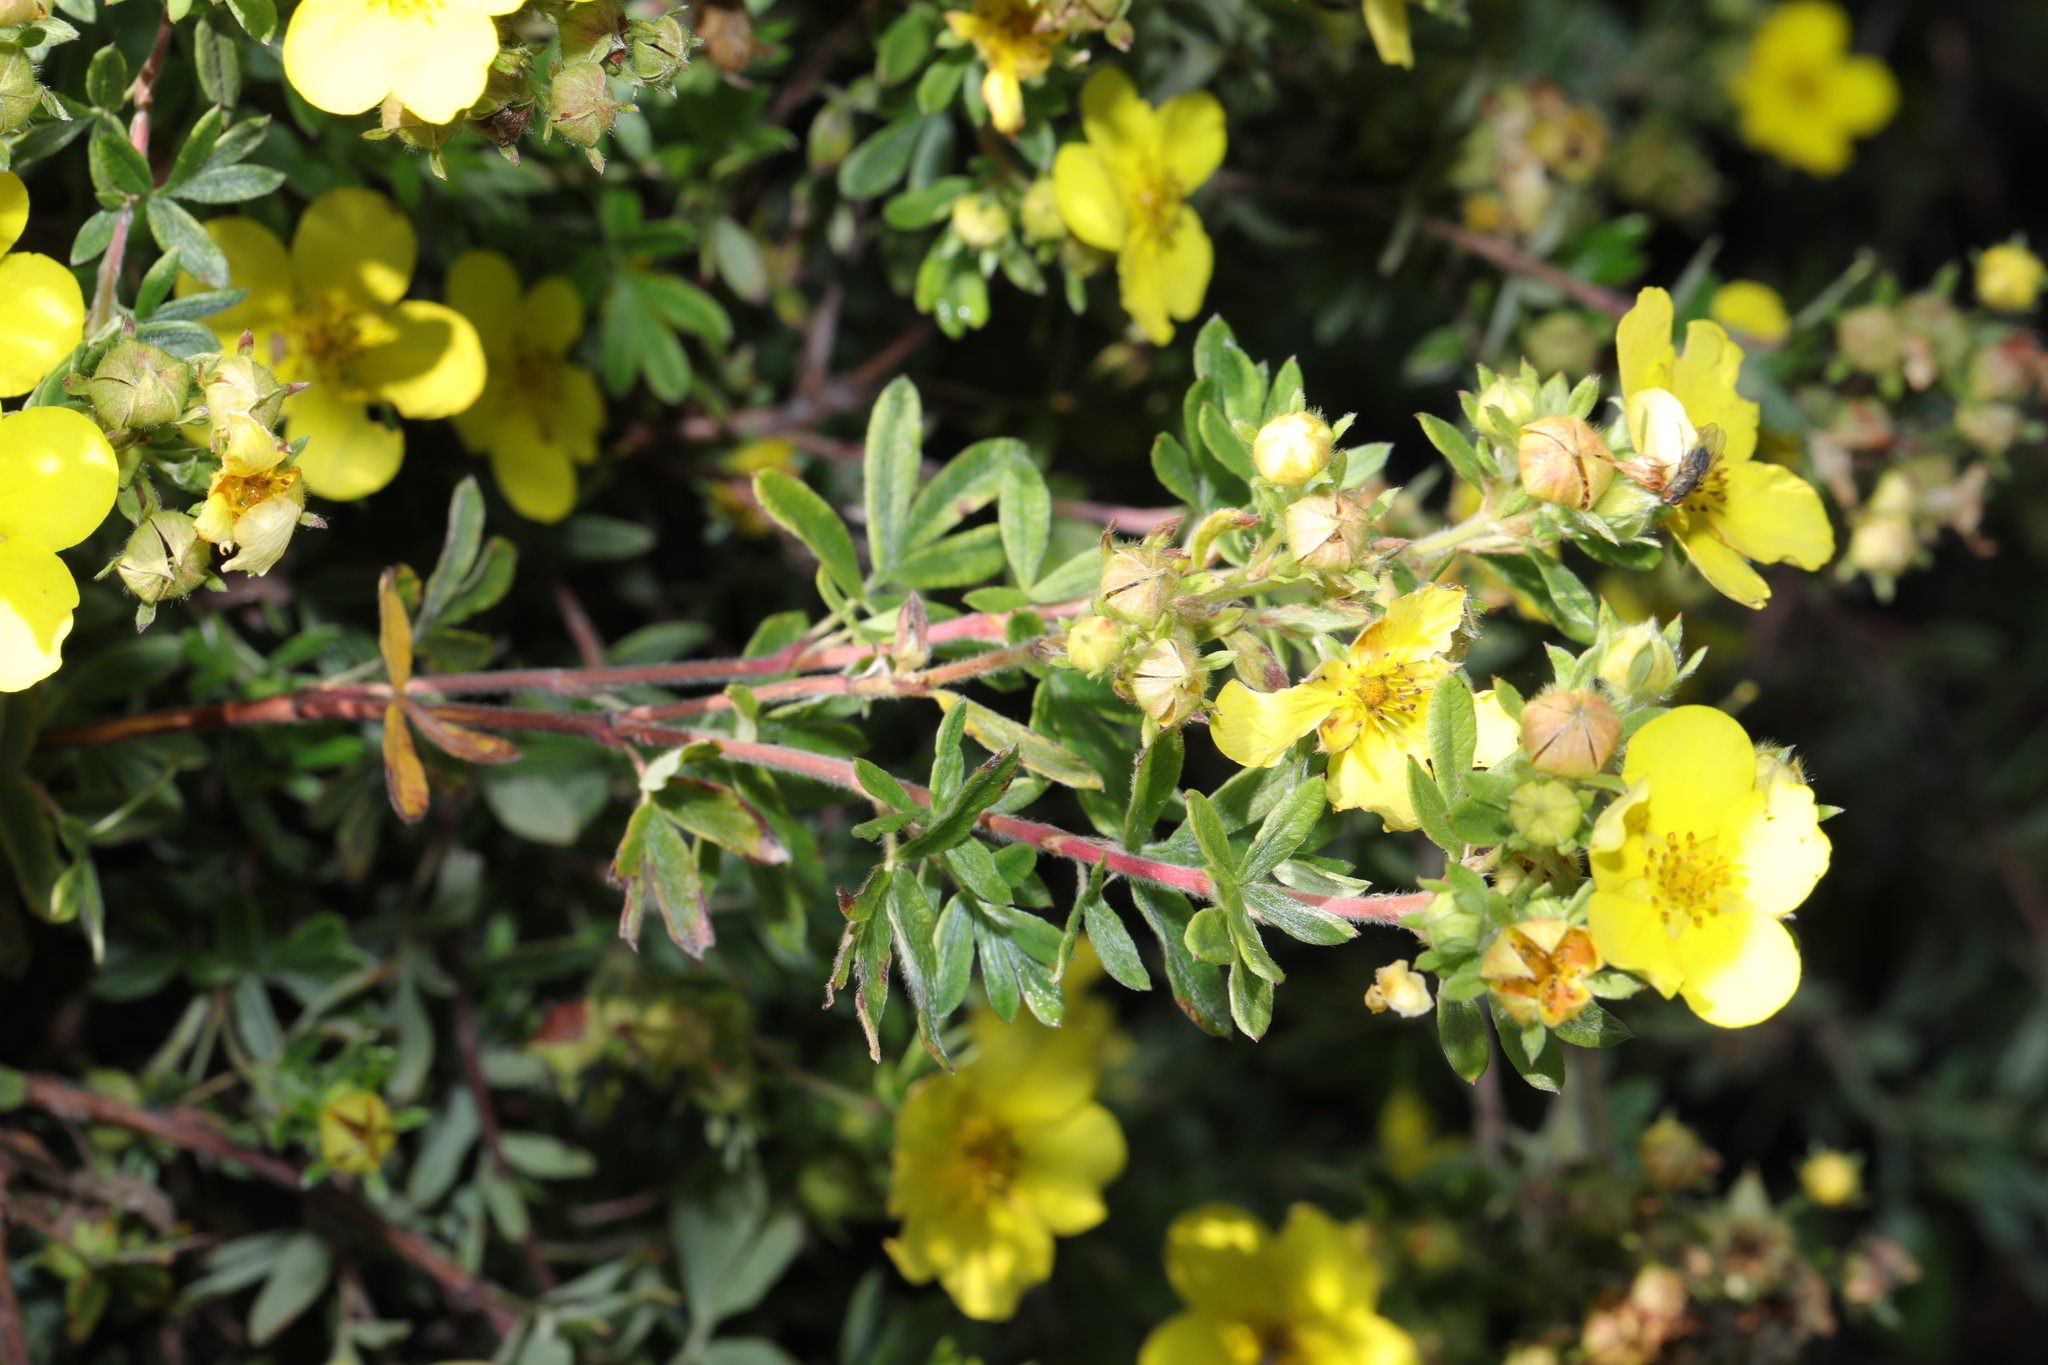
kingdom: Plantae
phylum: Tracheophyta
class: Magnoliopsida
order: Rosales
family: Rosaceae
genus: Dasiphora
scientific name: Dasiphora fruticosa
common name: Shrubby cinquefoil
